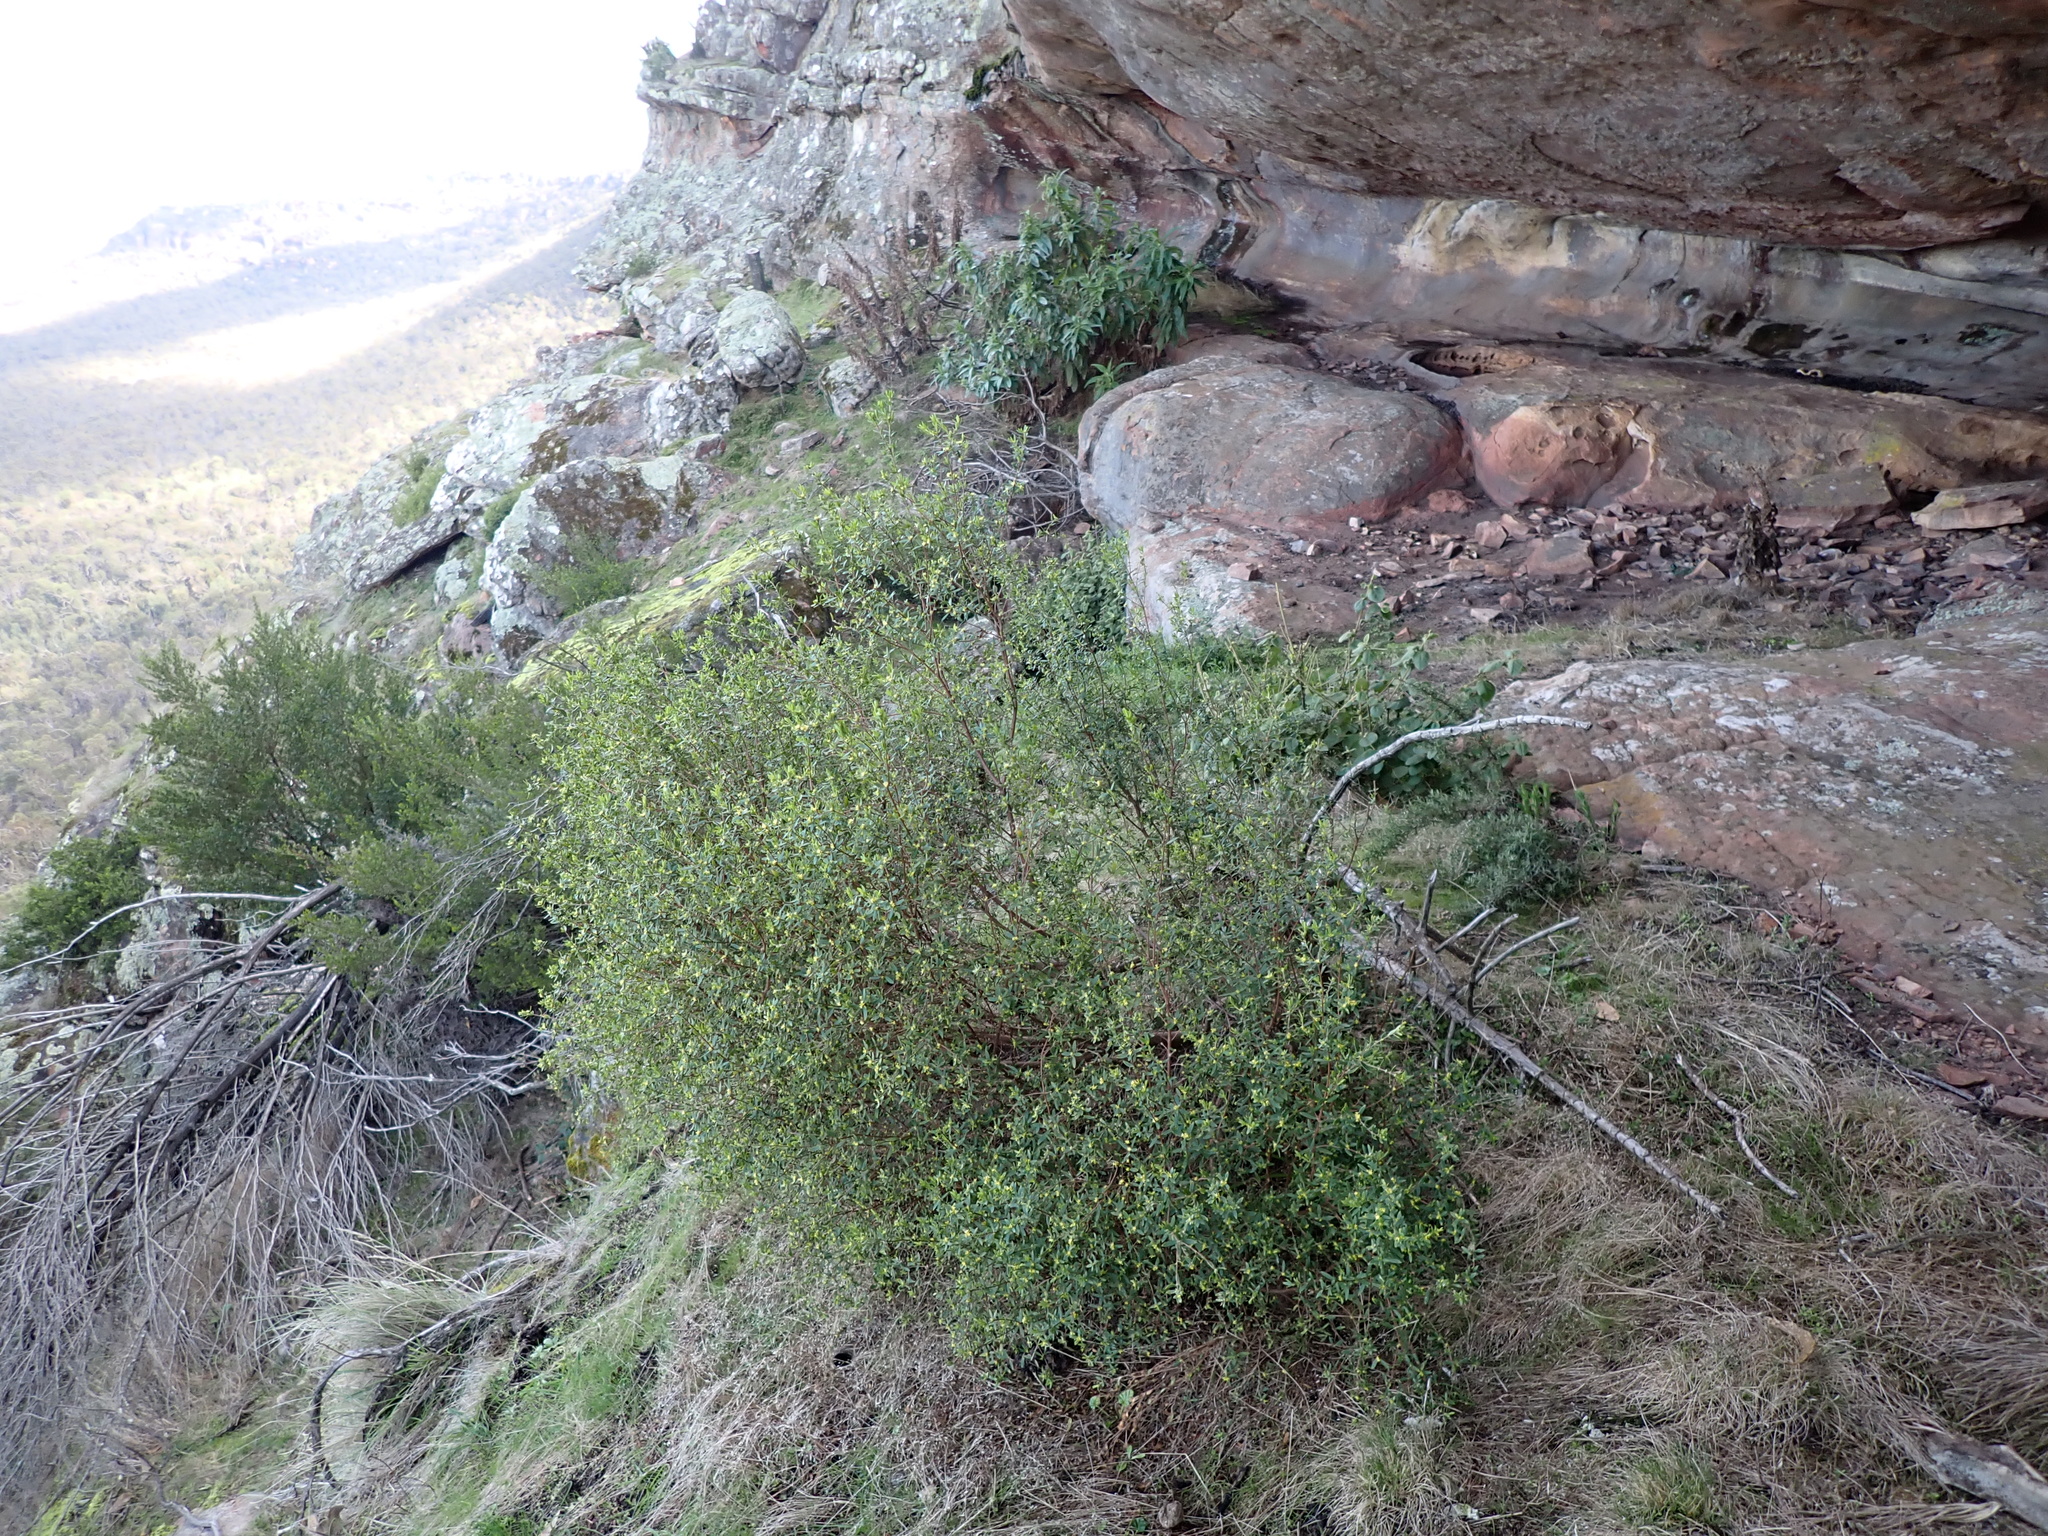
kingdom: Plantae
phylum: Tracheophyta
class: Magnoliopsida
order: Malvales
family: Thymelaeaceae
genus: Pimelea
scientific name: Pimelea hewardiana
